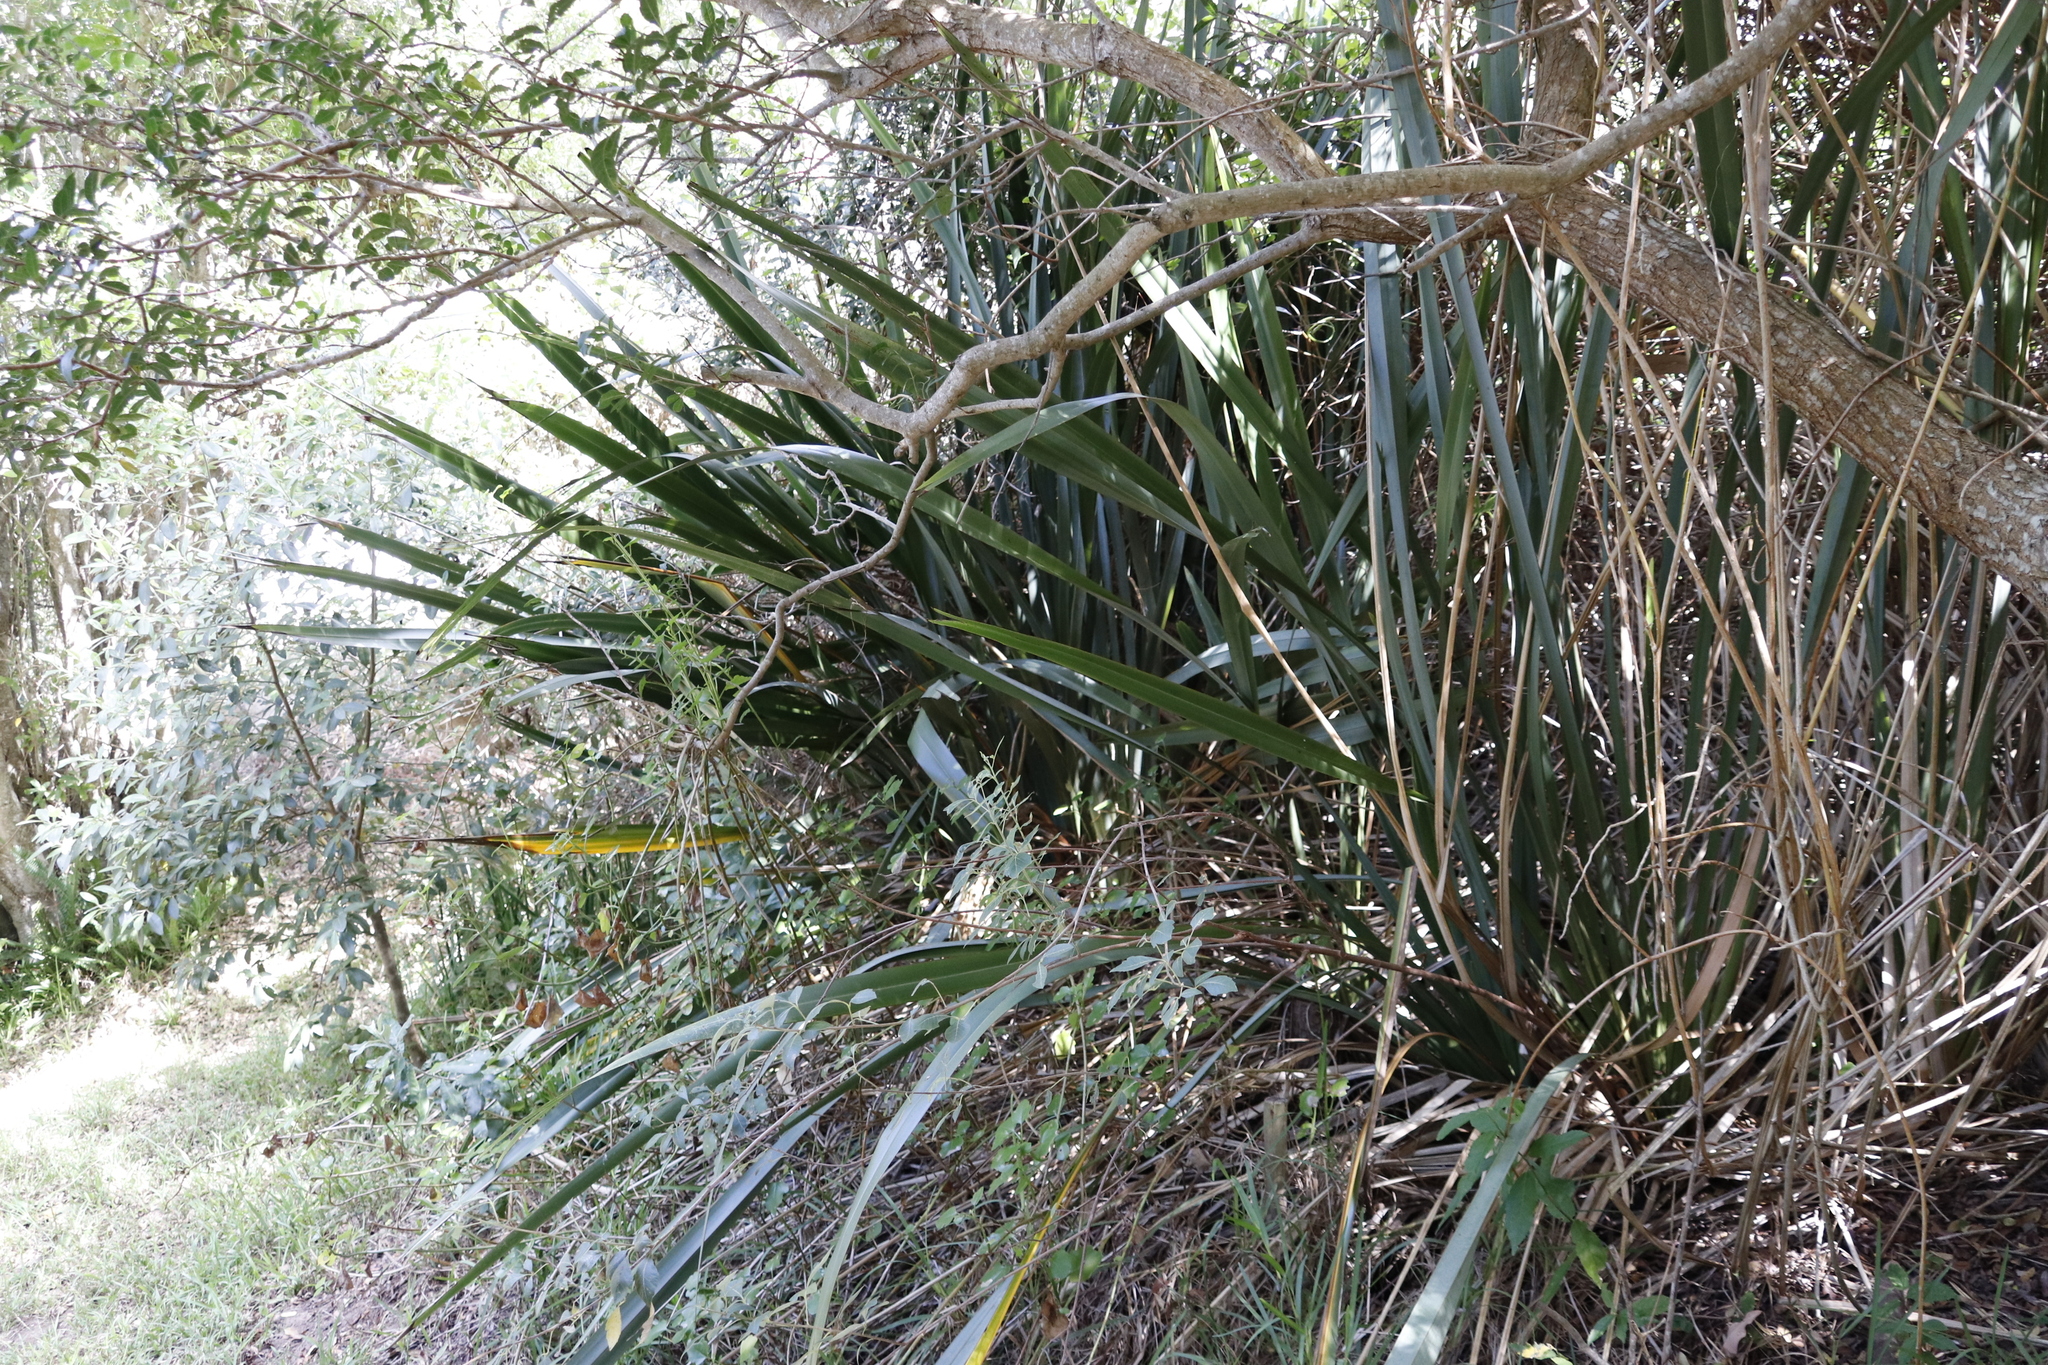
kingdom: Plantae
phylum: Tracheophyta
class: Liliopsida
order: Asparagales
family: Asphodelaceae
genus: Phormium
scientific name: Phormium tenax
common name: New zealand flax
